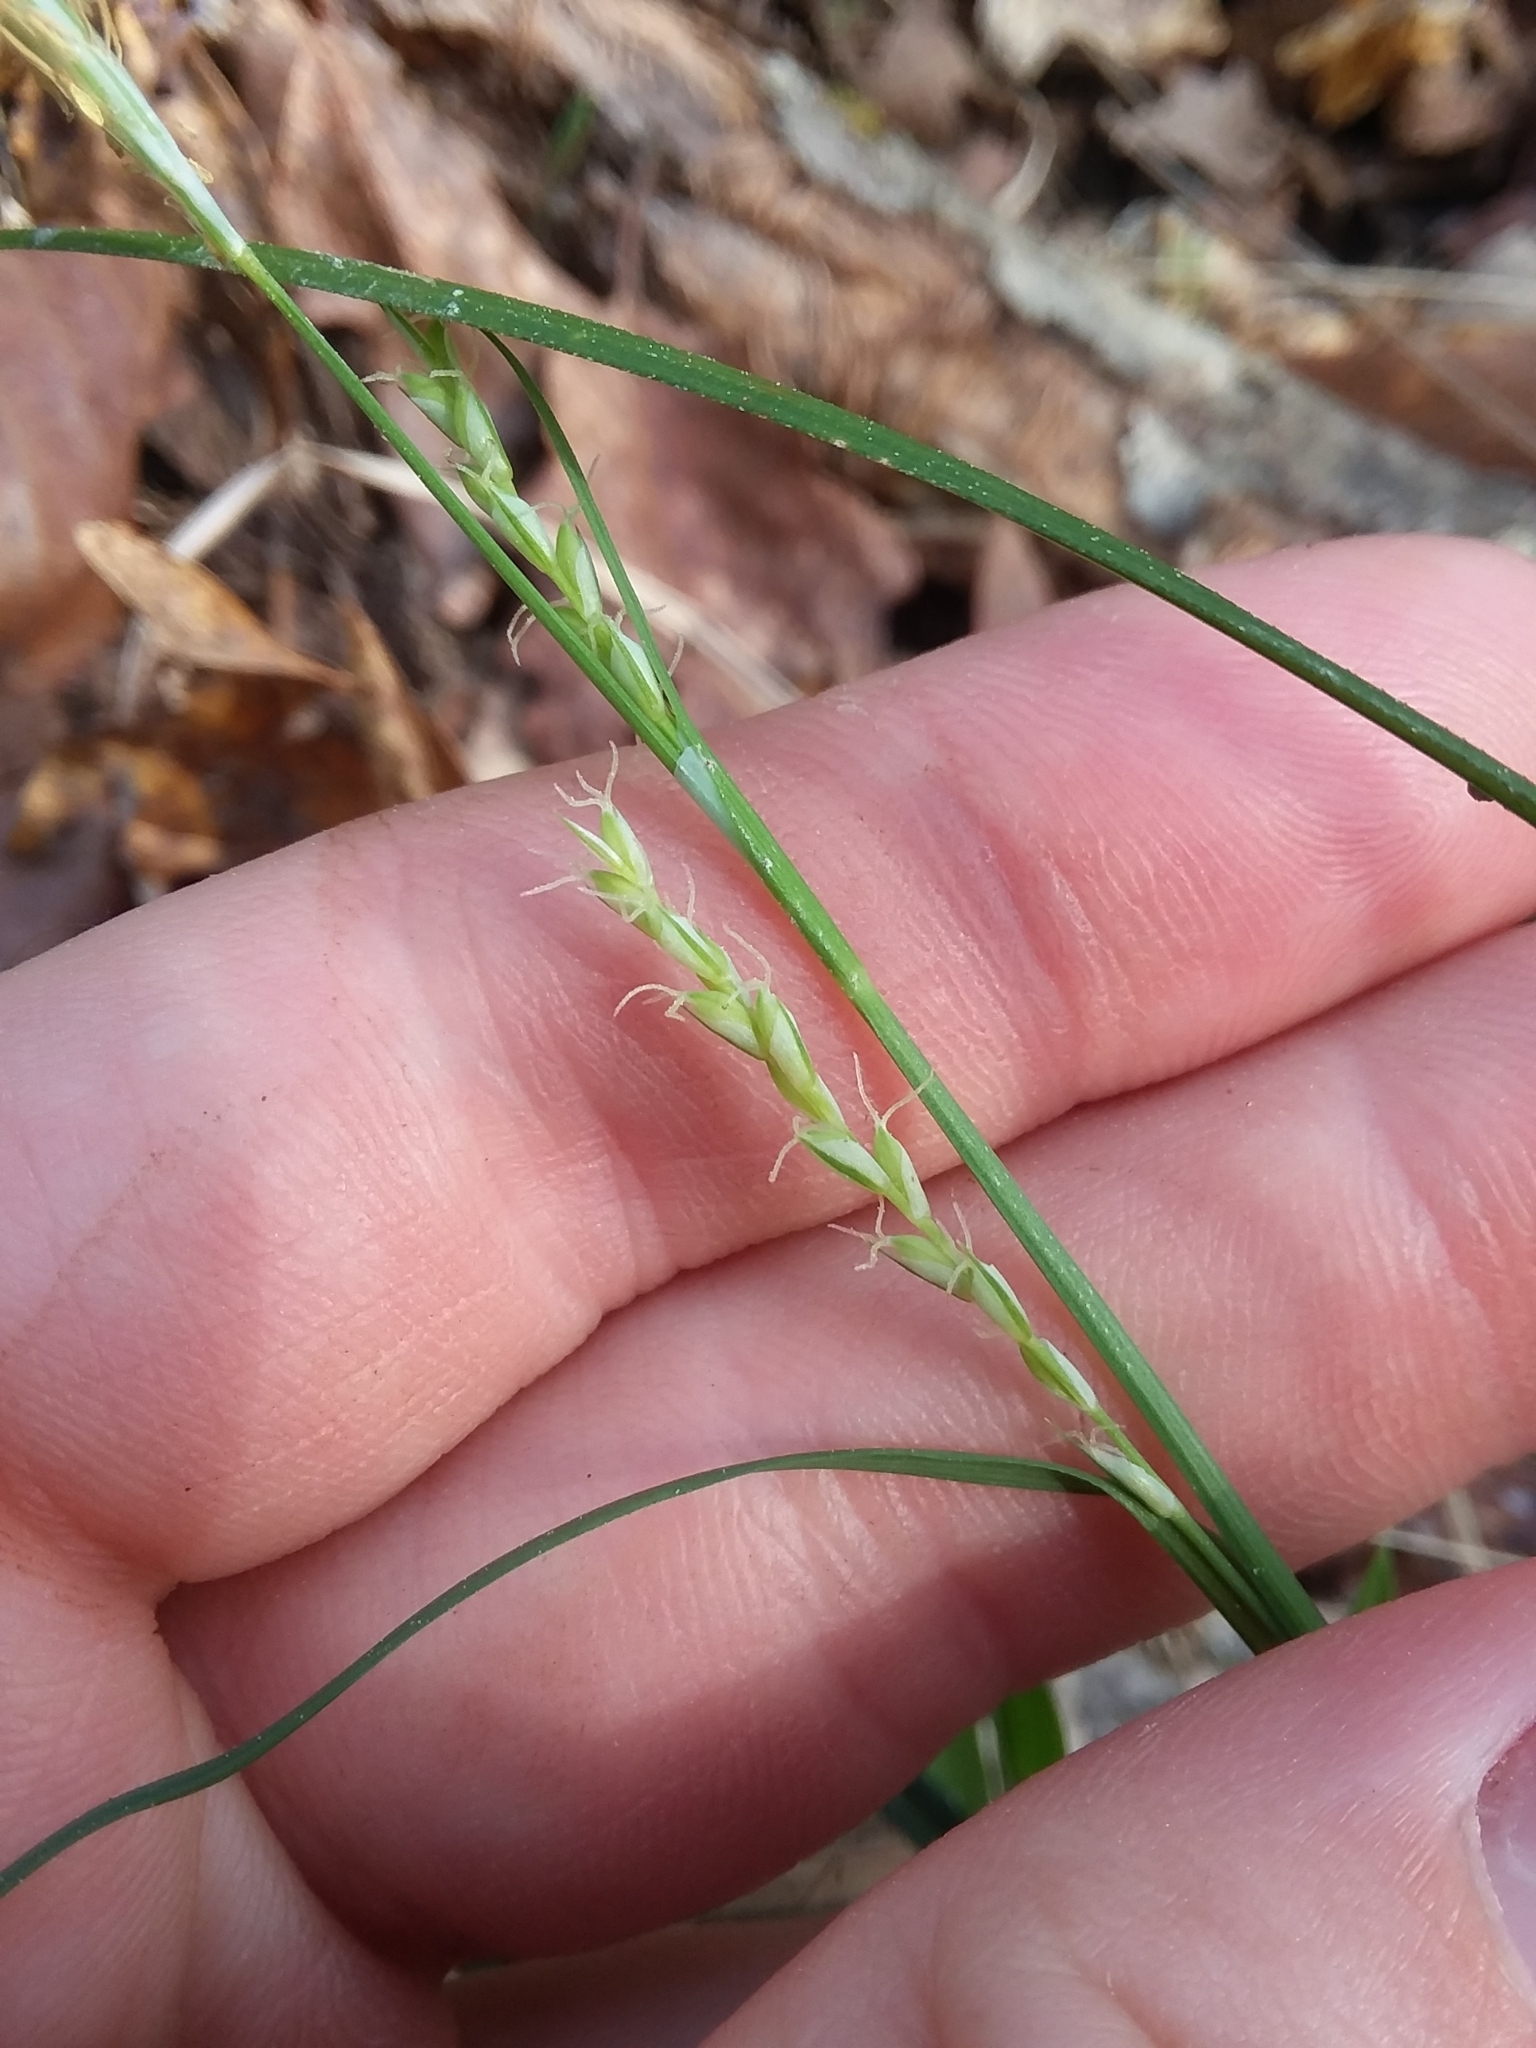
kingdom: Plantae
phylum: Tracheophyta
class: Liliopsida
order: Poales
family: Cyperaceae
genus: Carex
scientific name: Carex ignota
